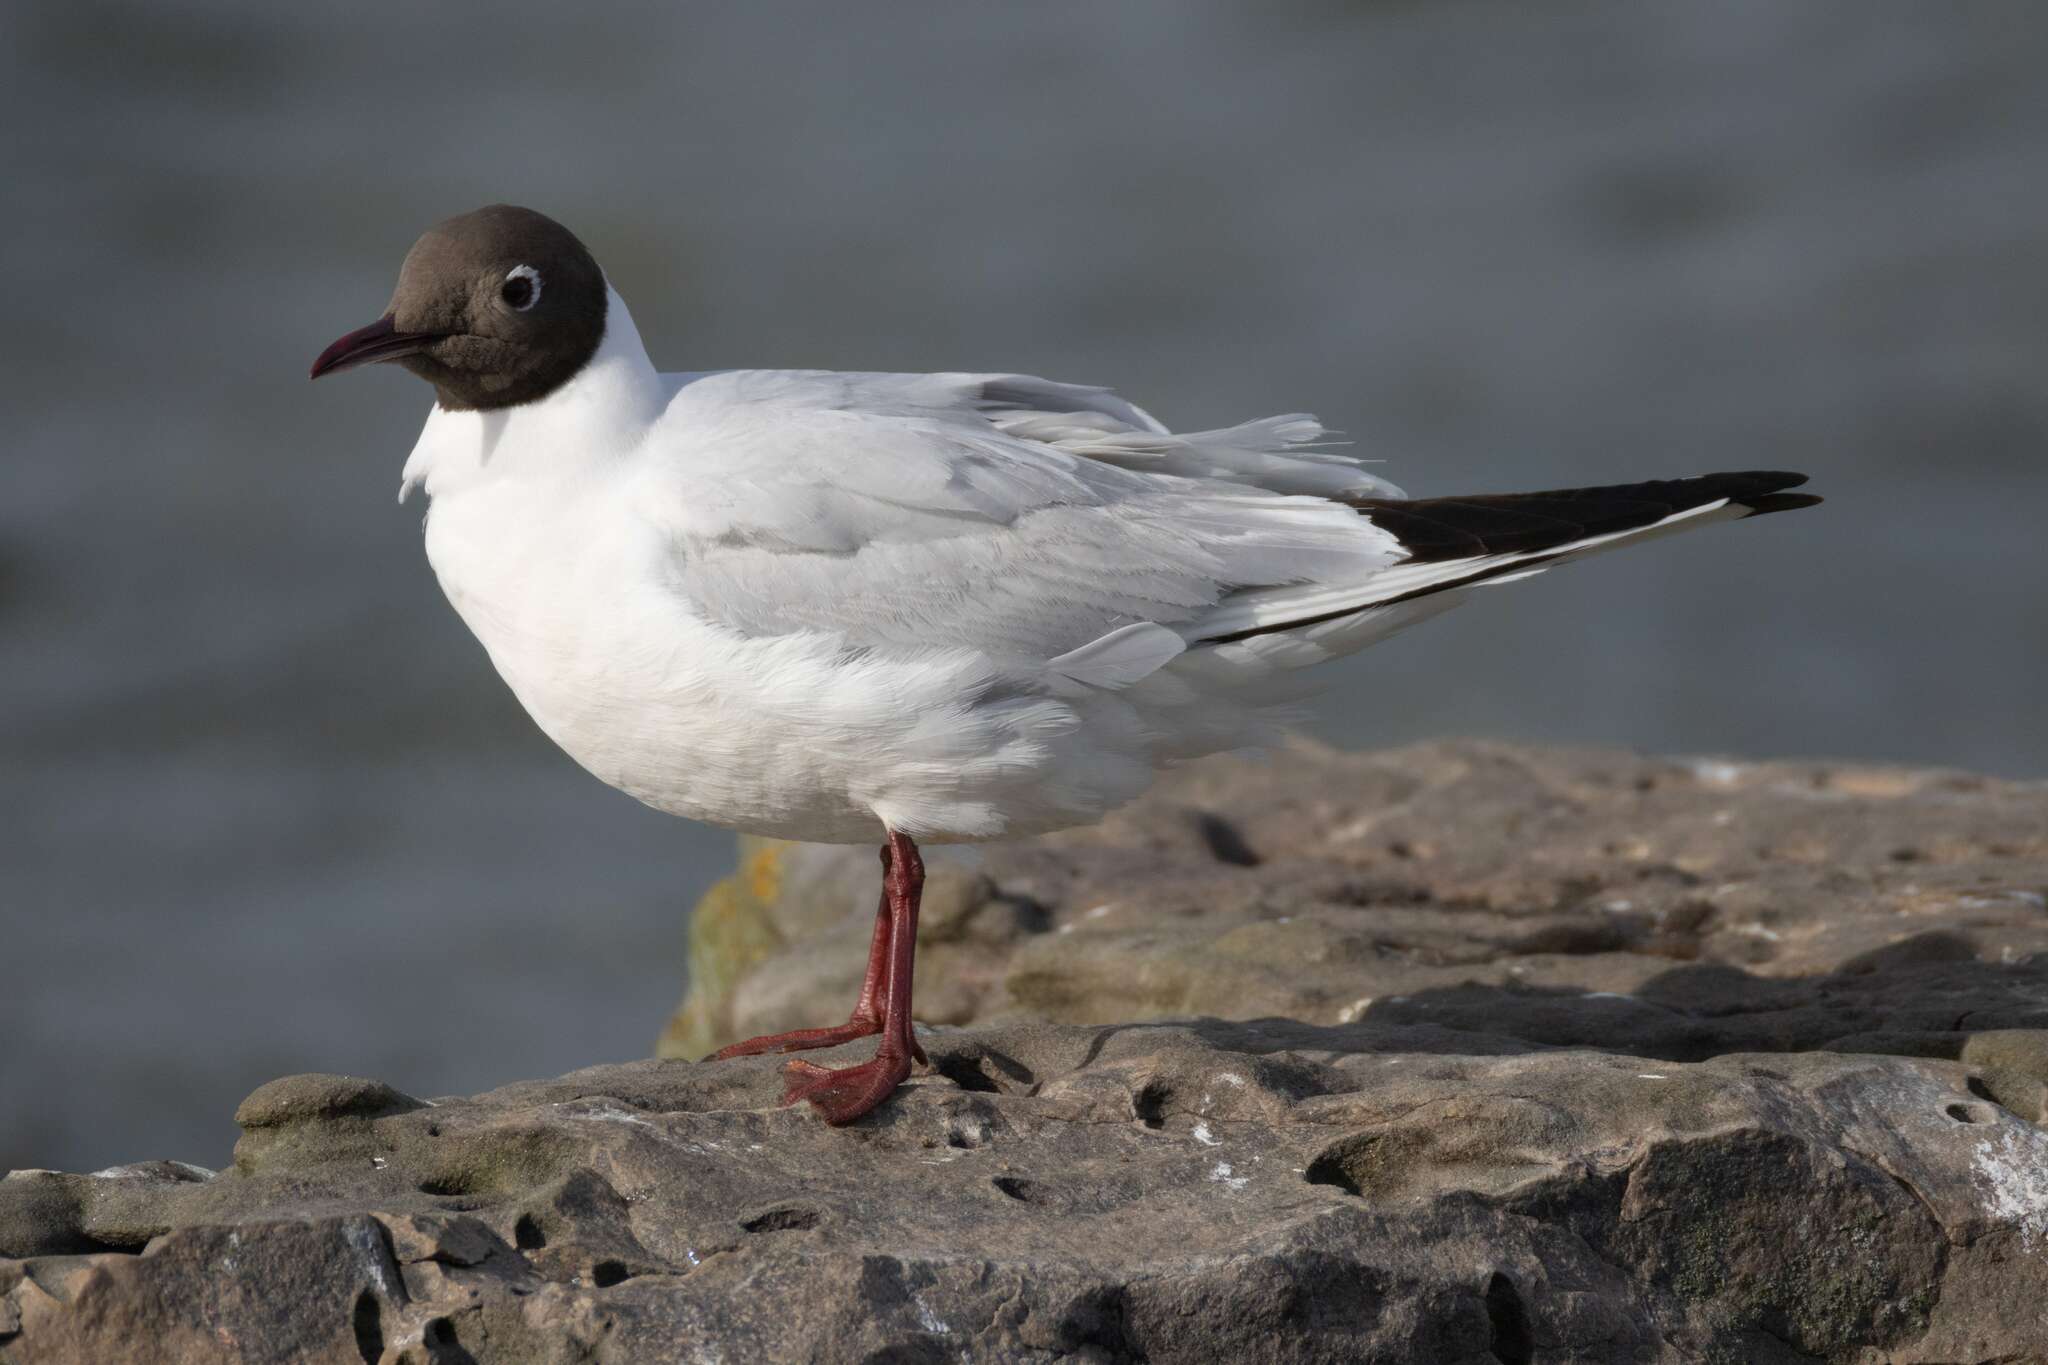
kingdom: Animalia
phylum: Chordata
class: Aves
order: Charadriiformes
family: Laridae
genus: Chroicocephalus
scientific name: Chroicocephalus ridibundus
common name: Black-headed gull
